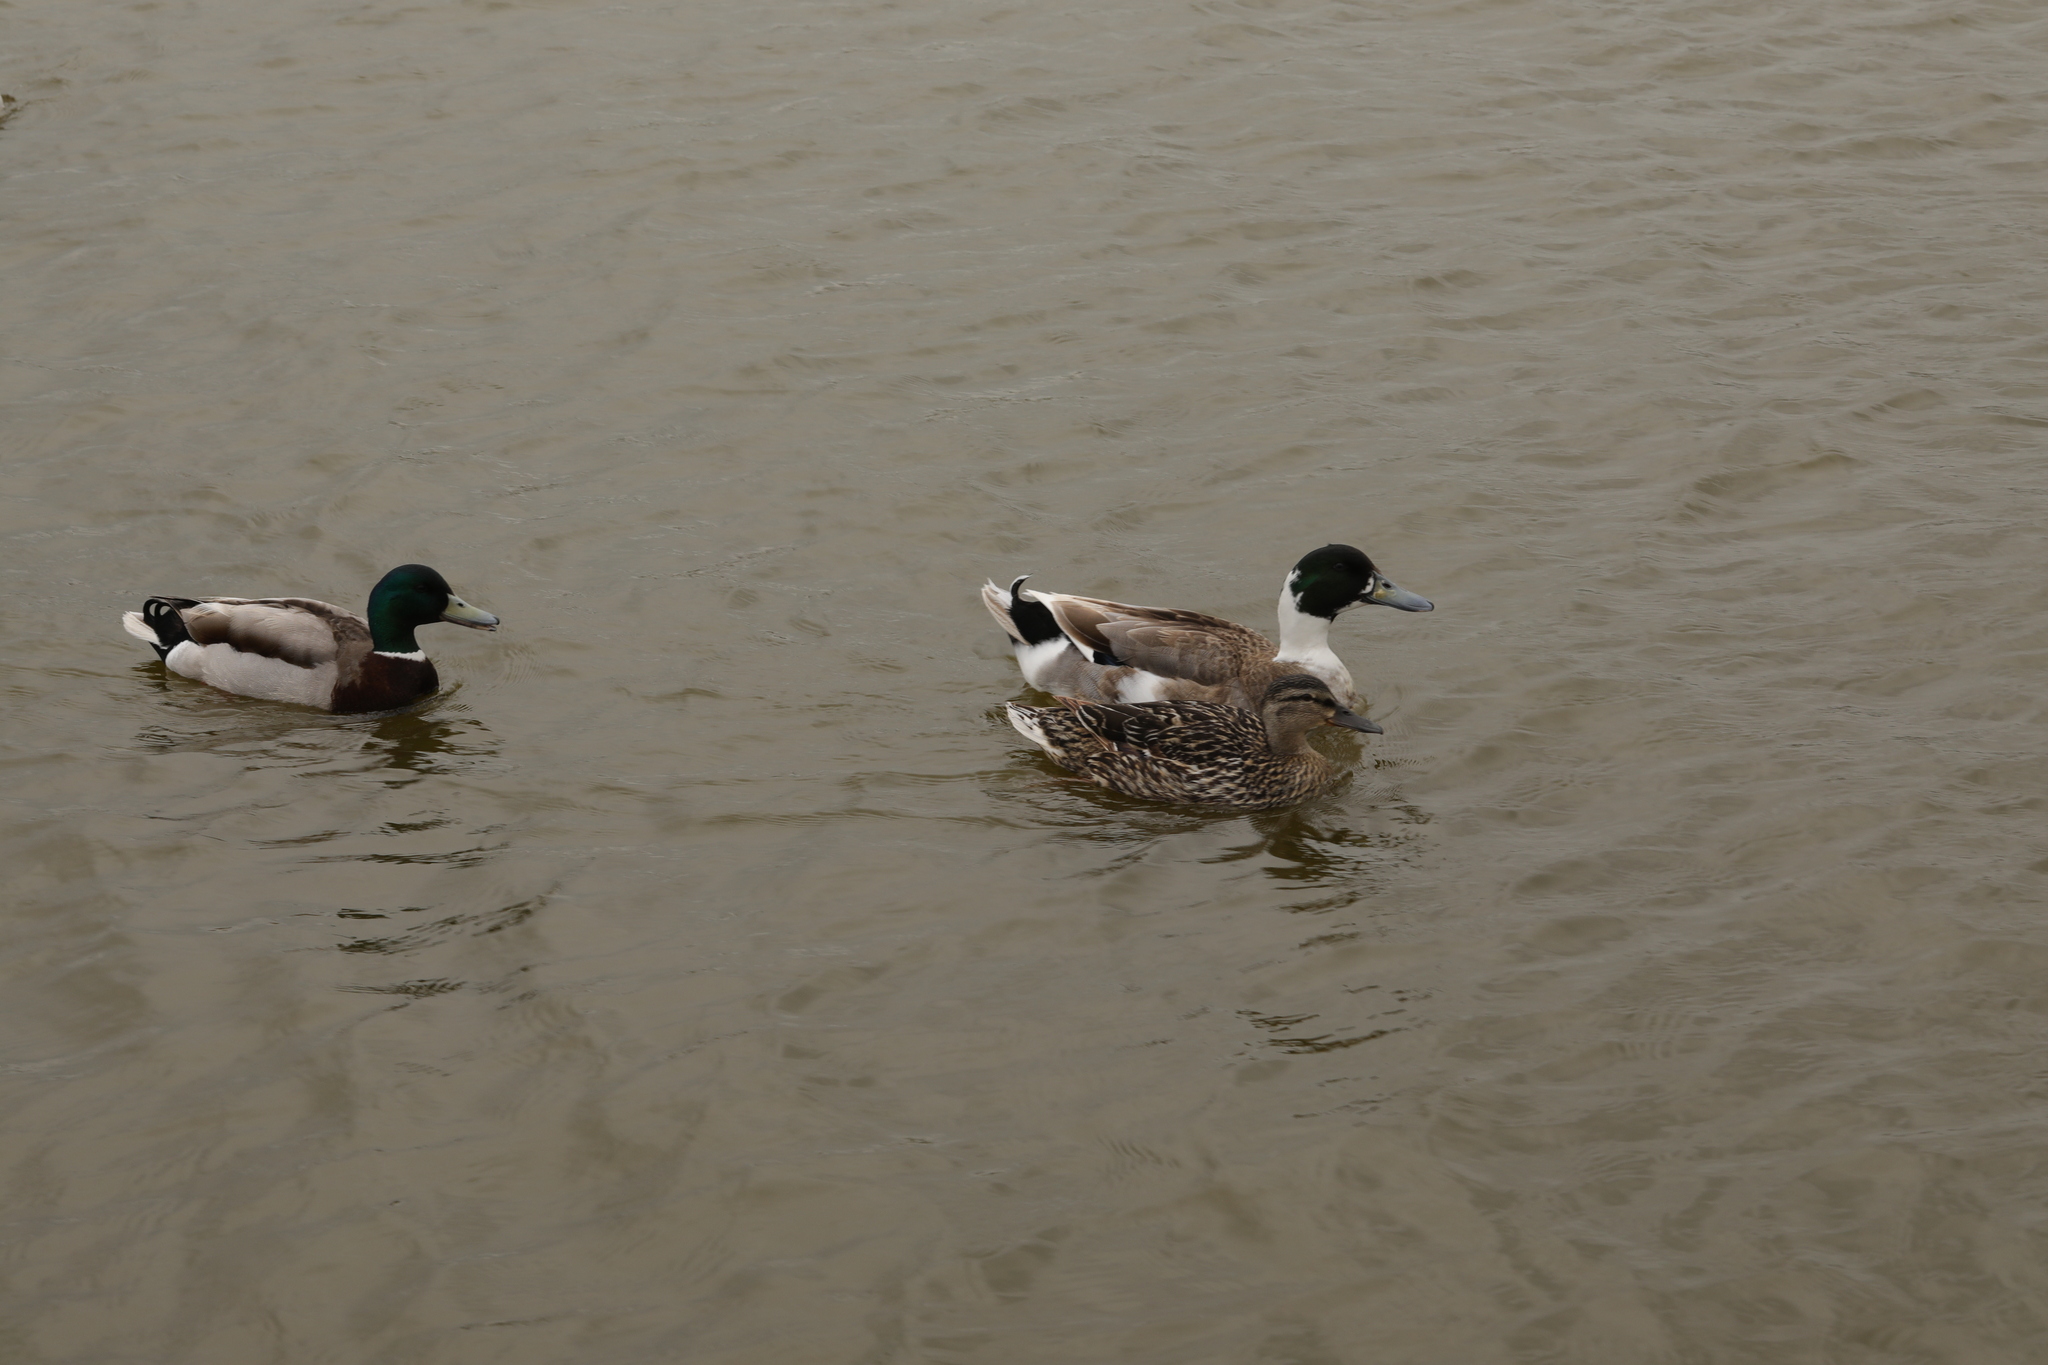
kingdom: Animalia
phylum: Chordata
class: Aves
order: Anseriformes
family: Anatidae
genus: Anas
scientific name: Anas platyrhynchos
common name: Mallard
